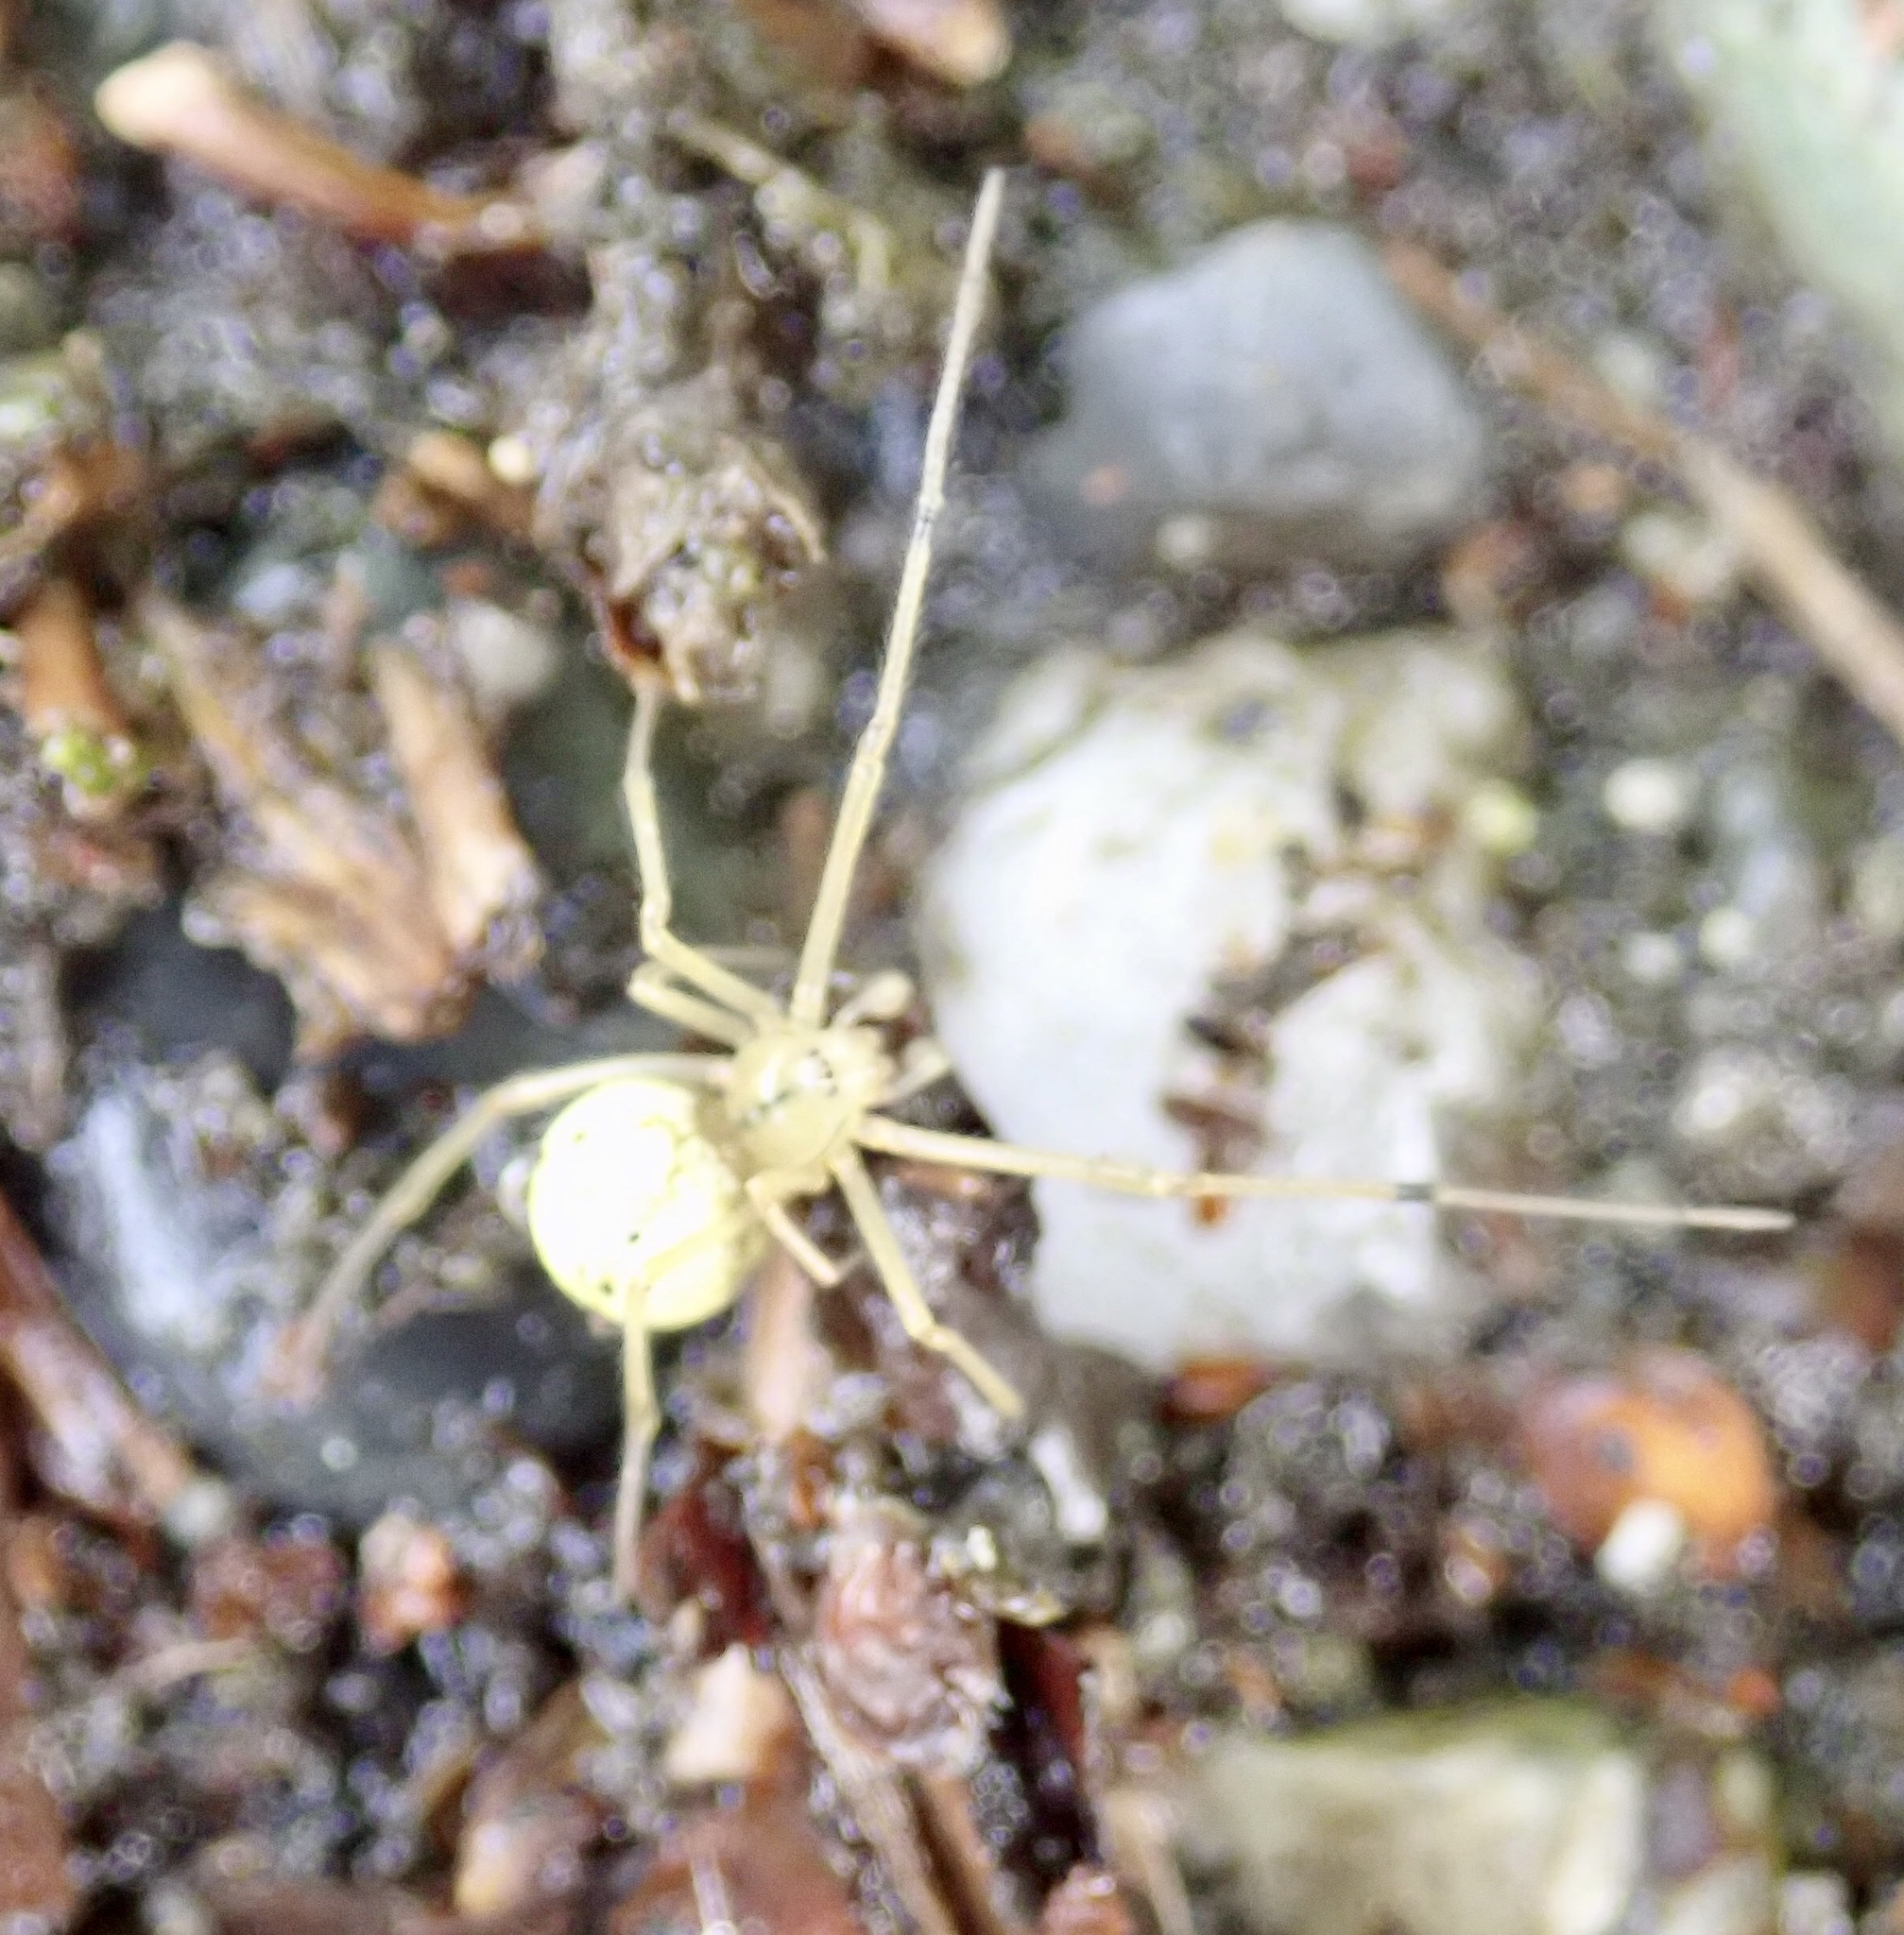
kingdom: Animalia
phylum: Arthropoda
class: Arachnida
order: Araneae
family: Theridiidae
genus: Enoplognatha
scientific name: Enoplognatha ovata
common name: Common candy-striped spider
